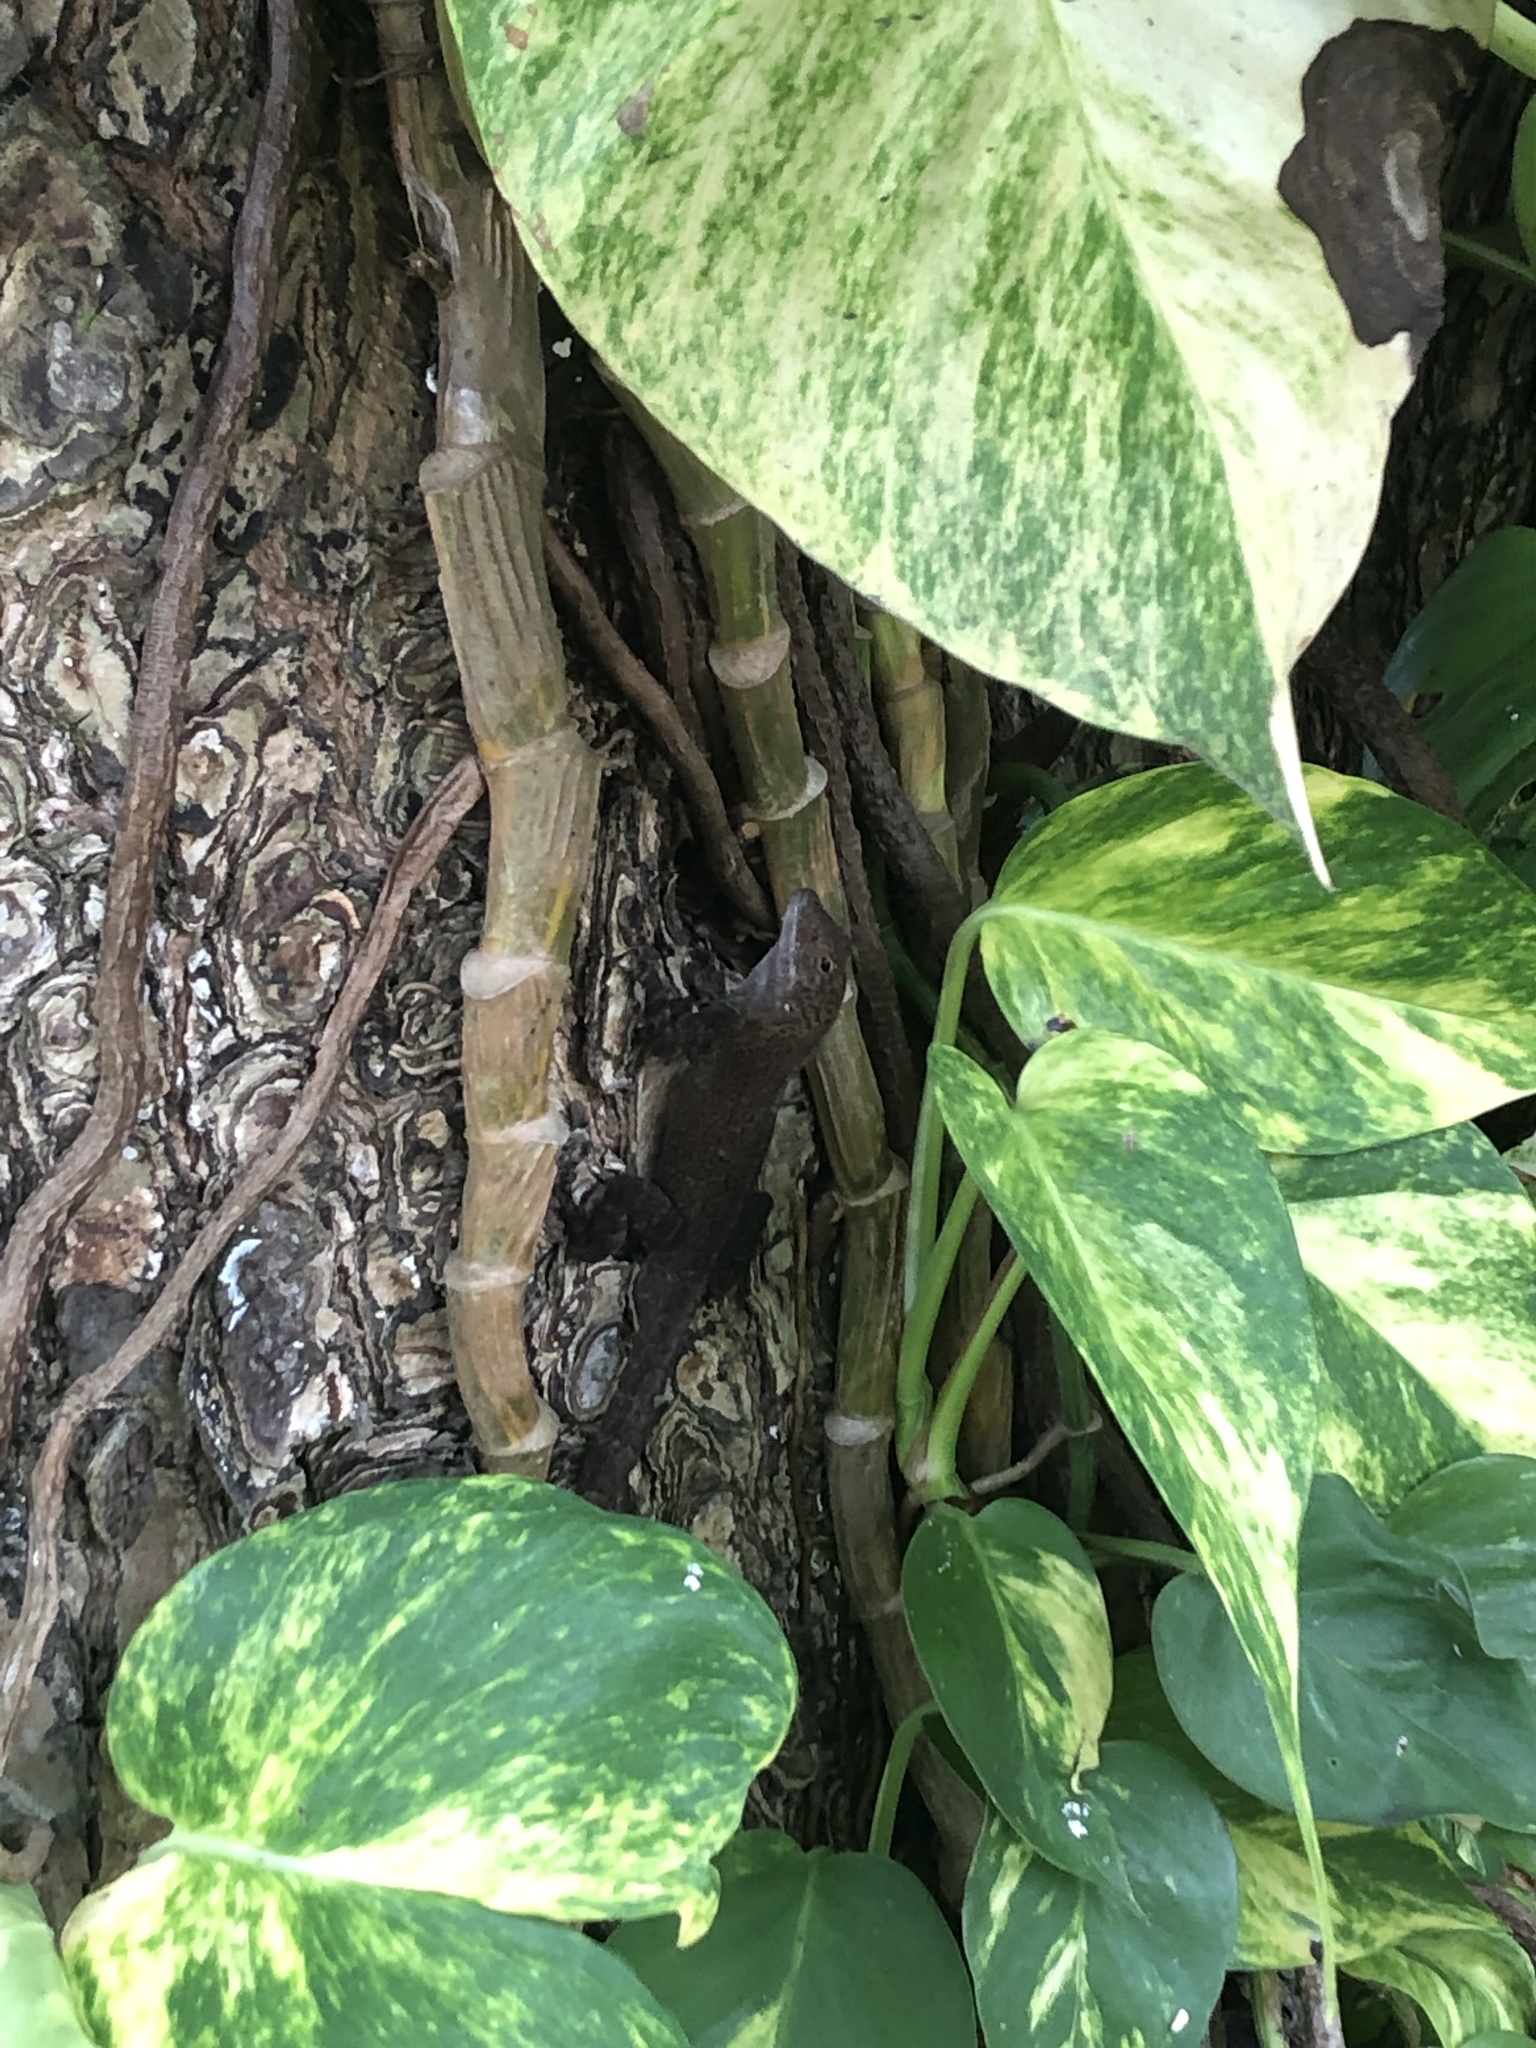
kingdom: Animalia
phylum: Chordata
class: Squamata
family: Dactyloidae
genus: Anolis
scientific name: Anolis cristatellus
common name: Crested anole
